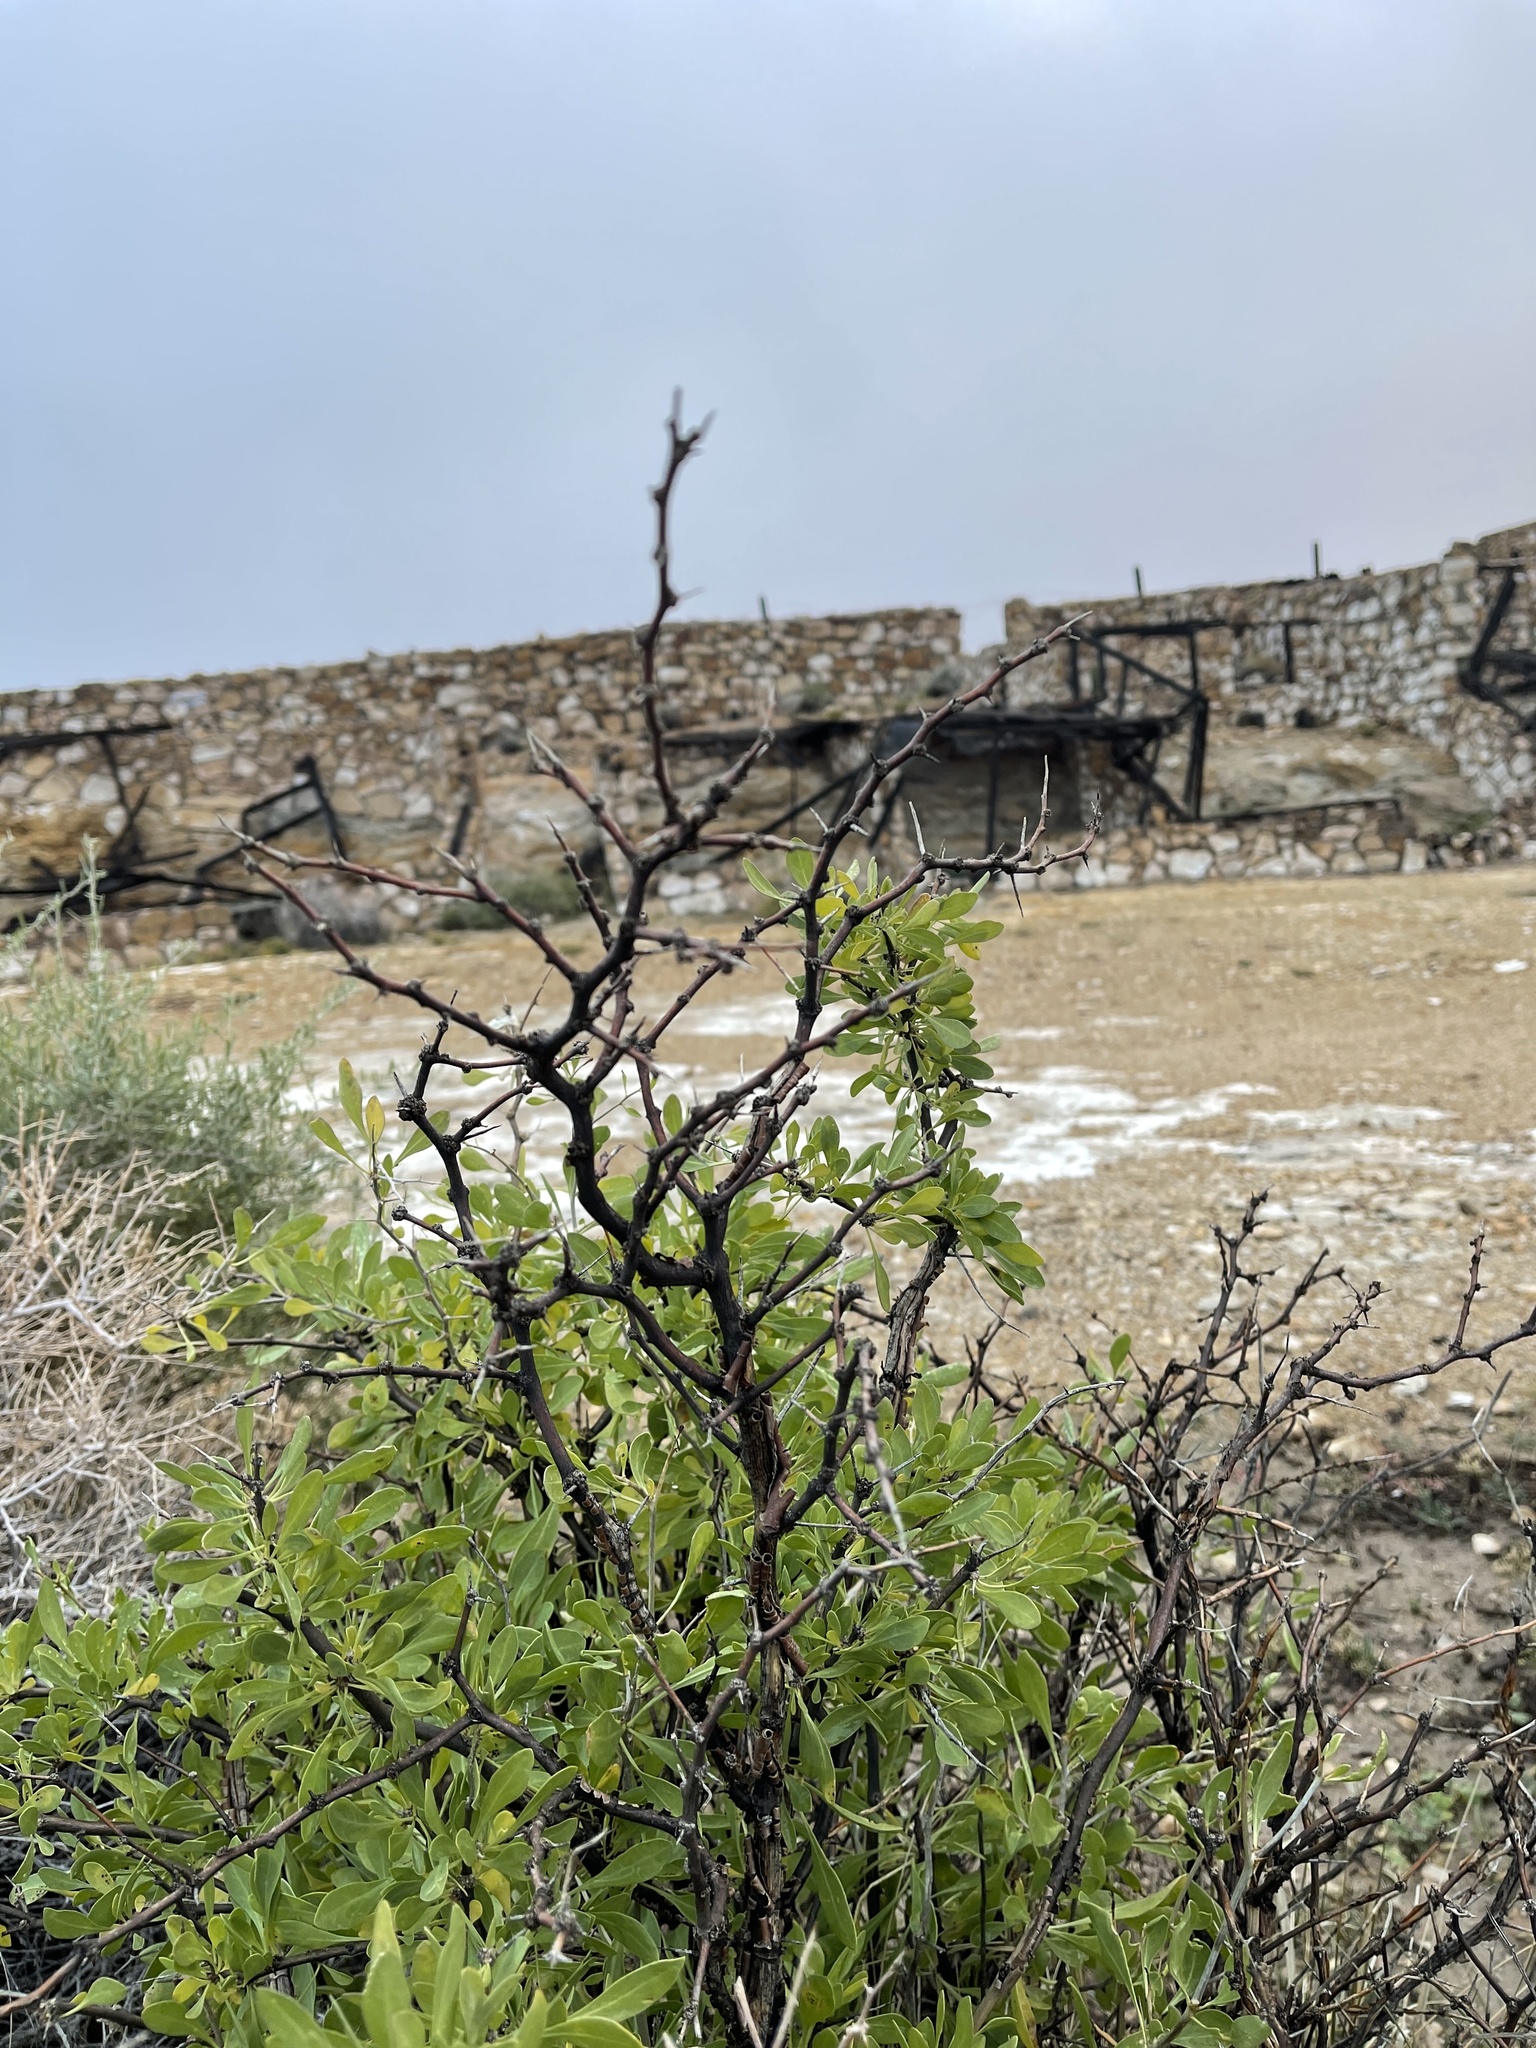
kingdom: Plantae
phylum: Tracheophyta
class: Magnoliopsida
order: Solanales
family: Solanaceae
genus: Lycium
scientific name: Lycium pallidum
